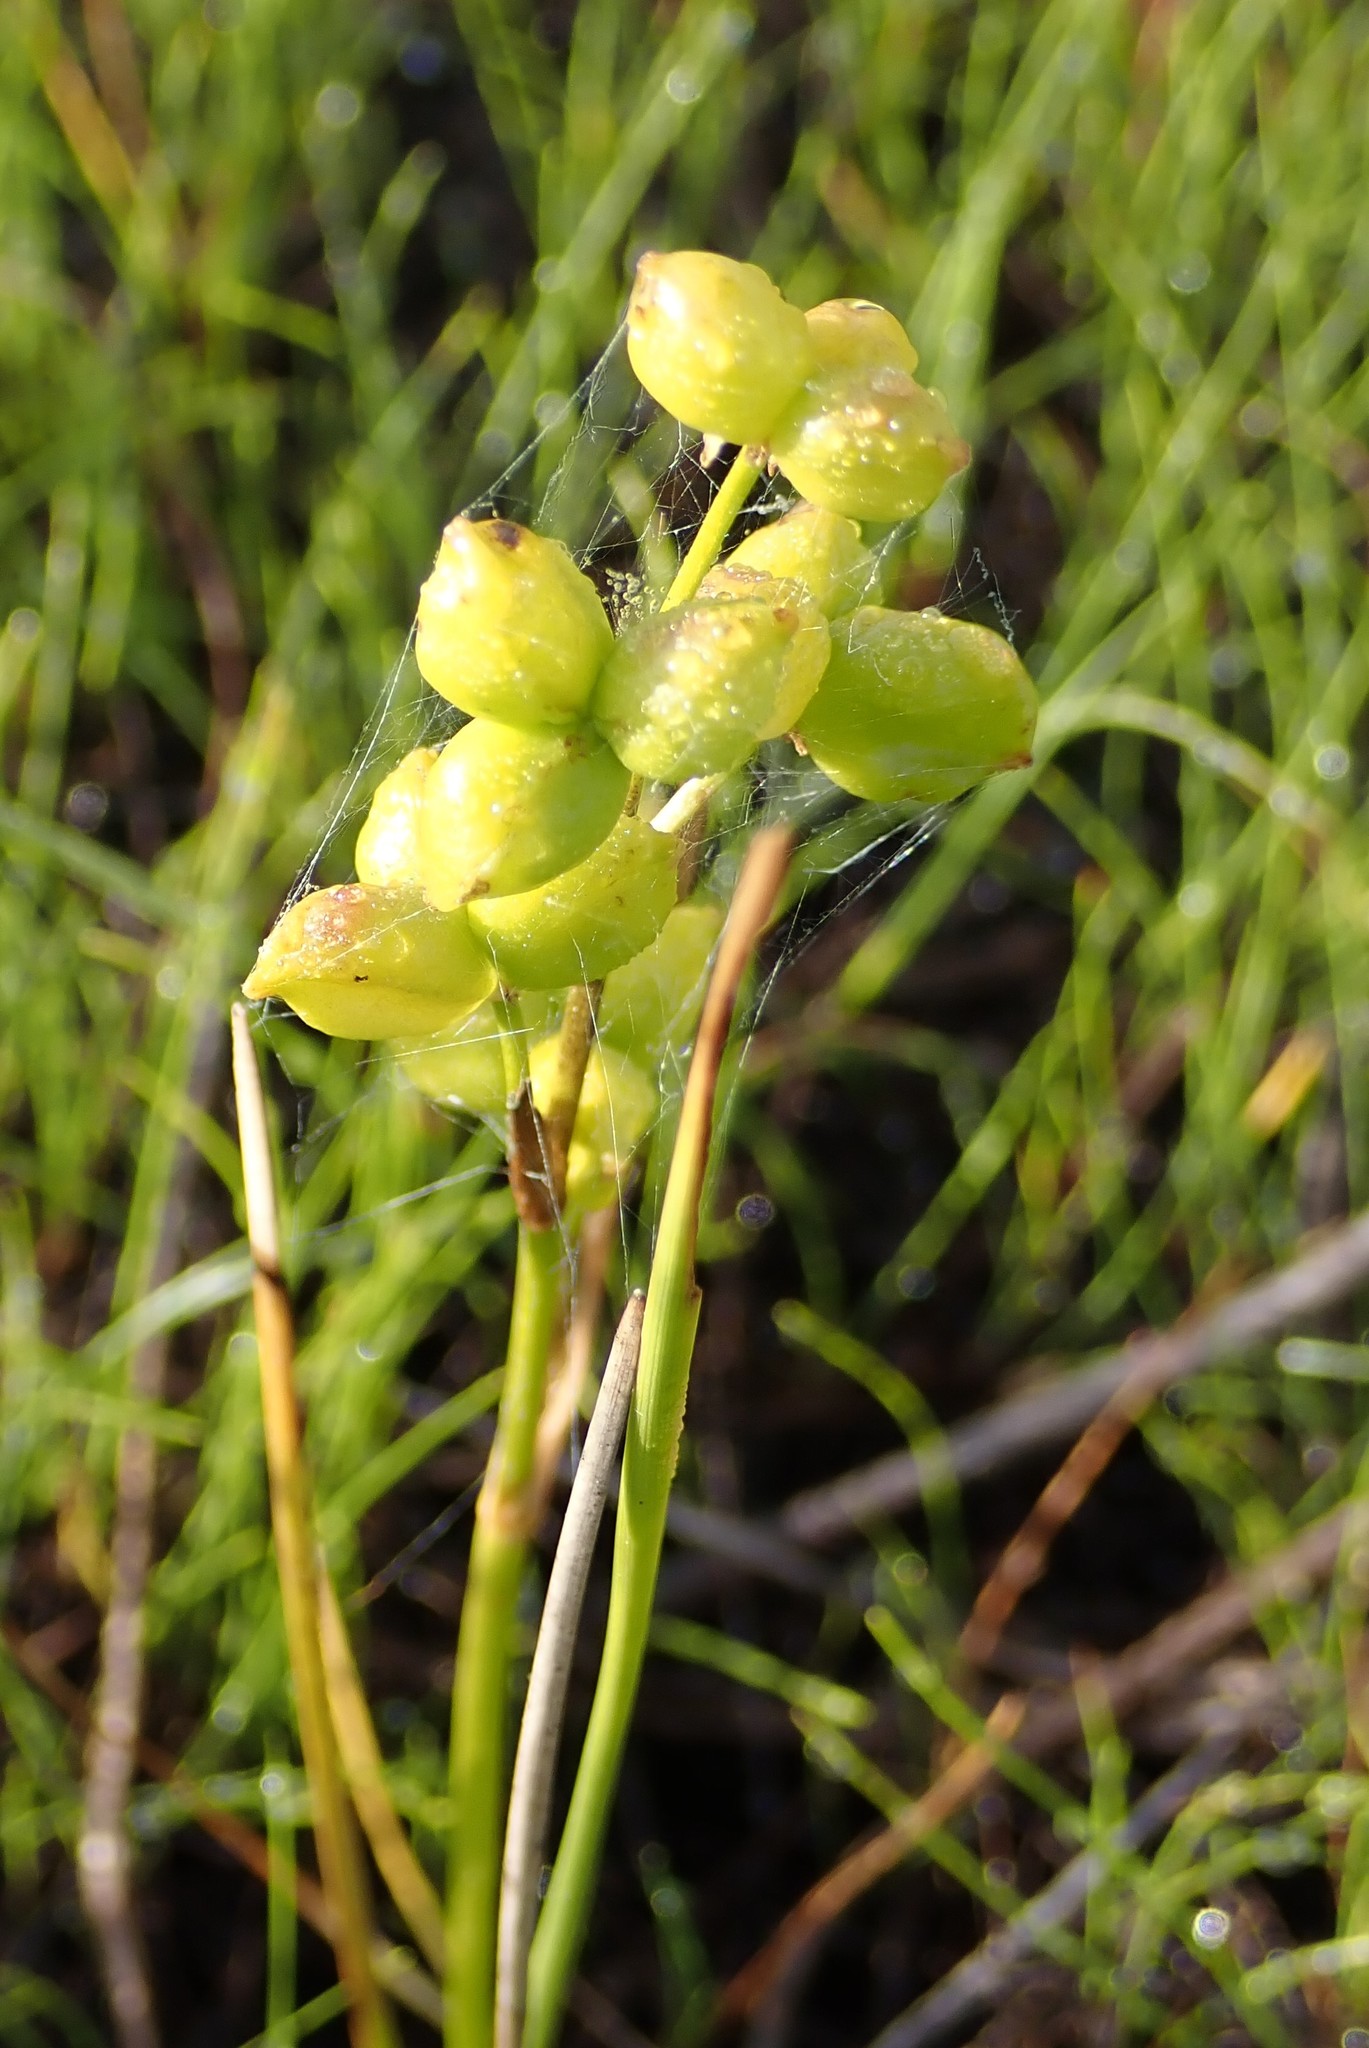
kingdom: Plantae
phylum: Tracheophyta
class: Liliopsida
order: Alismatales
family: Scheuchzeriaceae
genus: Scheuchzeria
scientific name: Scheuchzeria palustris
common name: Rannoch-rush
